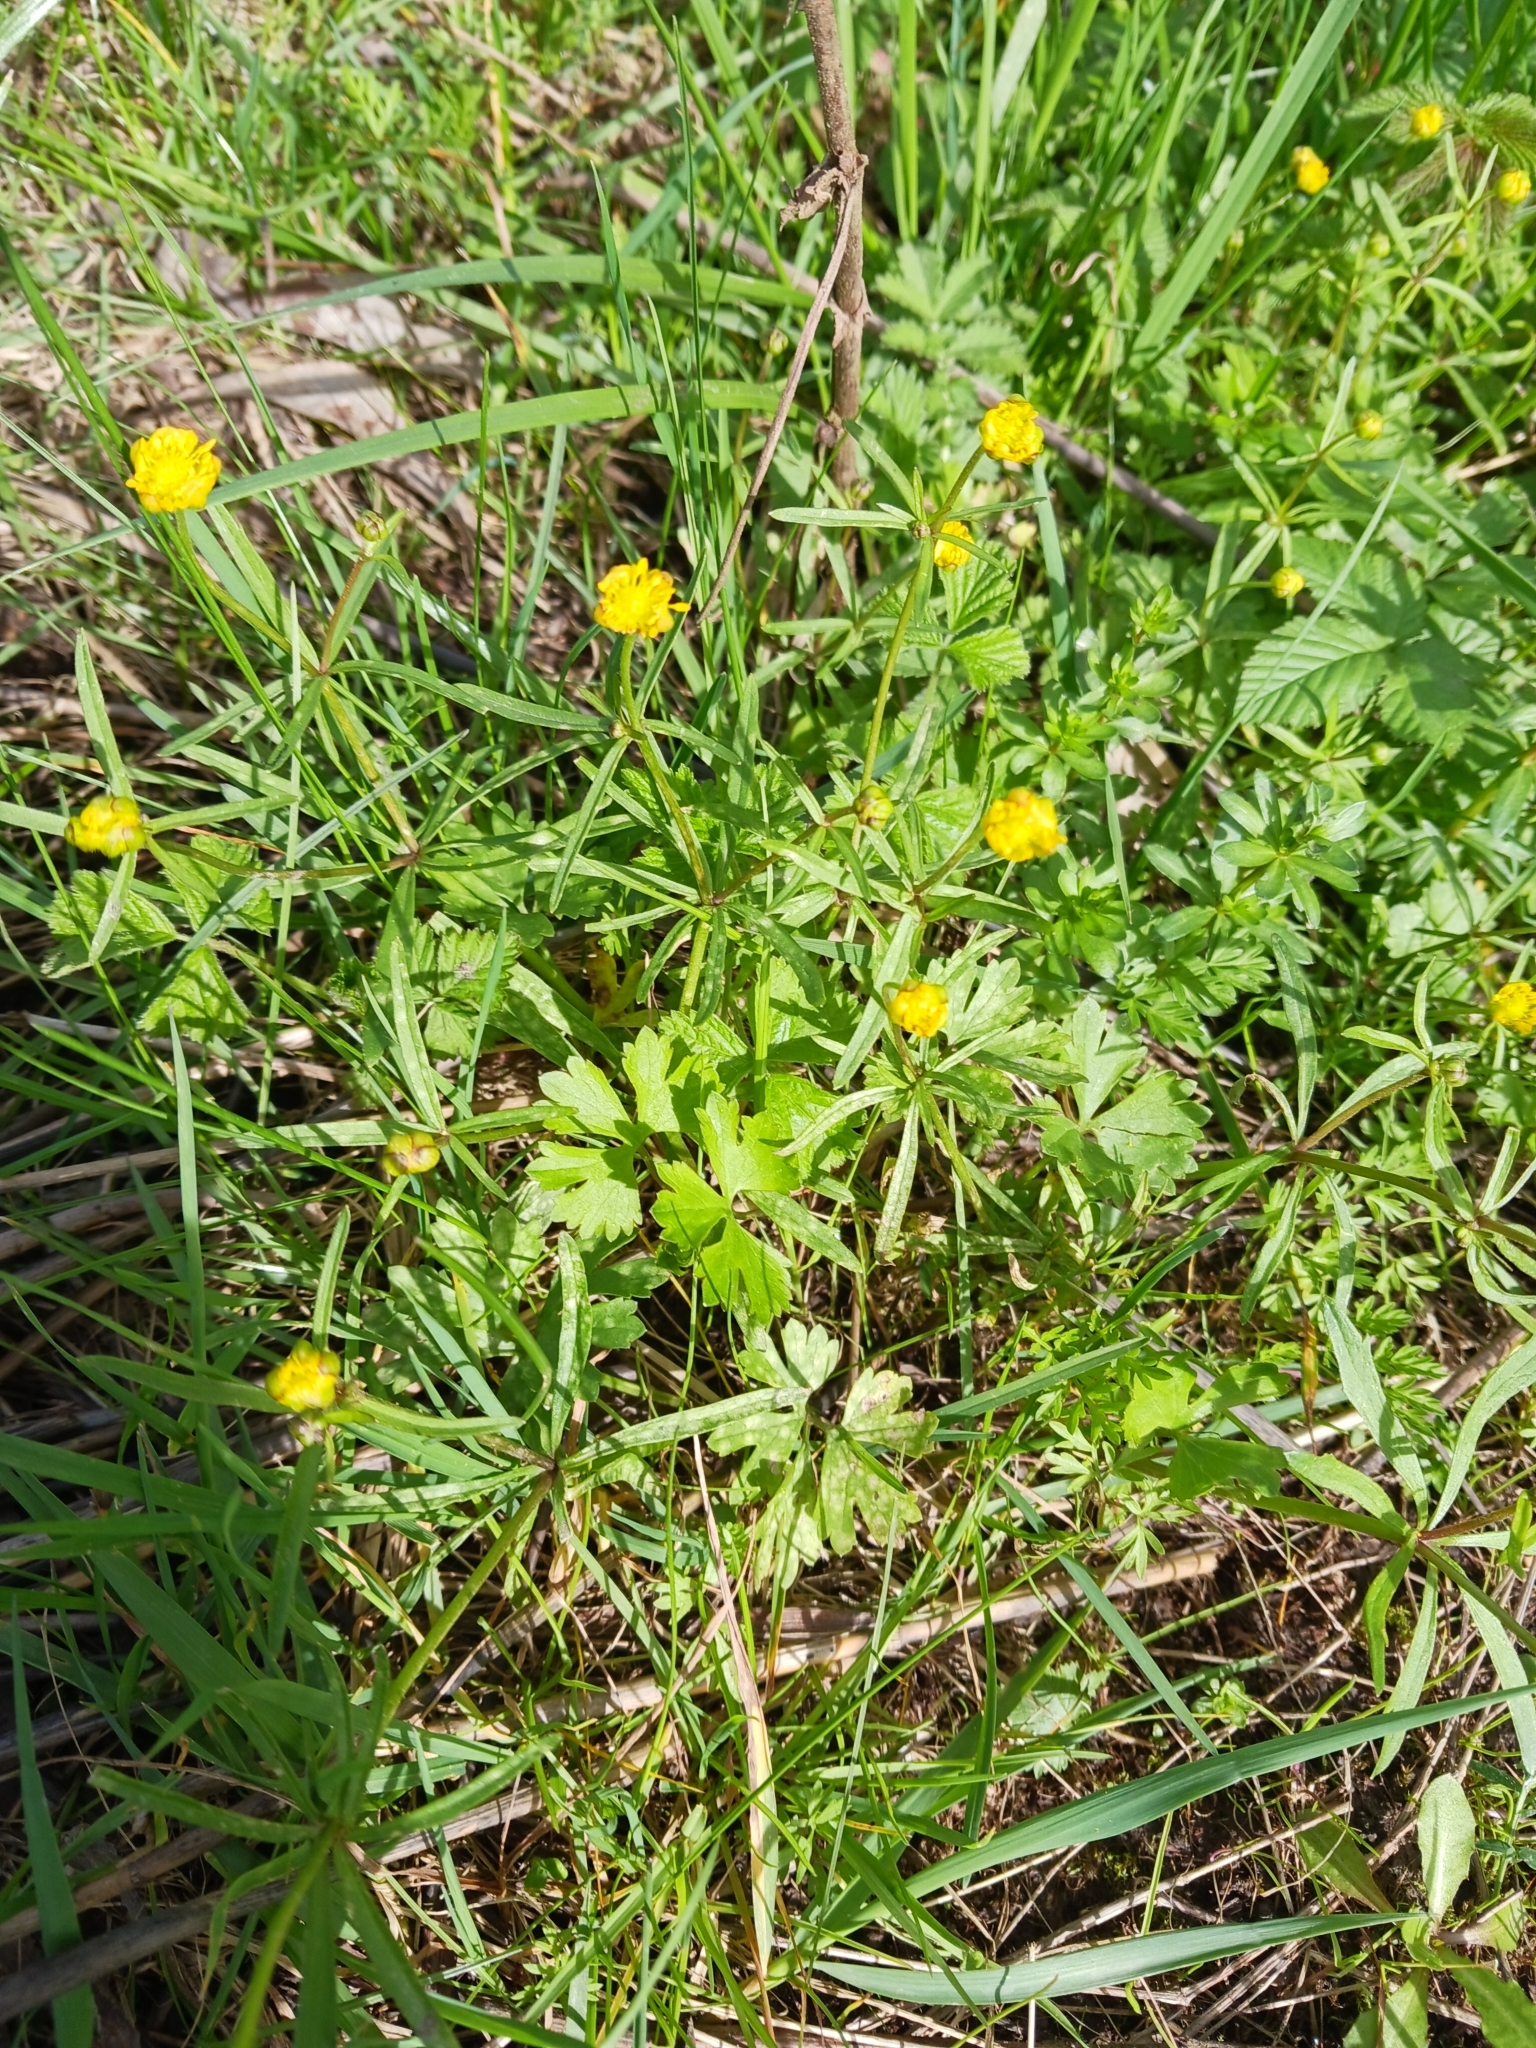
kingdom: Plantae
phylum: Tracheophyta
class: Magnoliopsida
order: Ranunculales
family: Ranunculaceae
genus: Ranunculus
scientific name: Ranunculus auricomus
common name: Goldilocks buttercup
